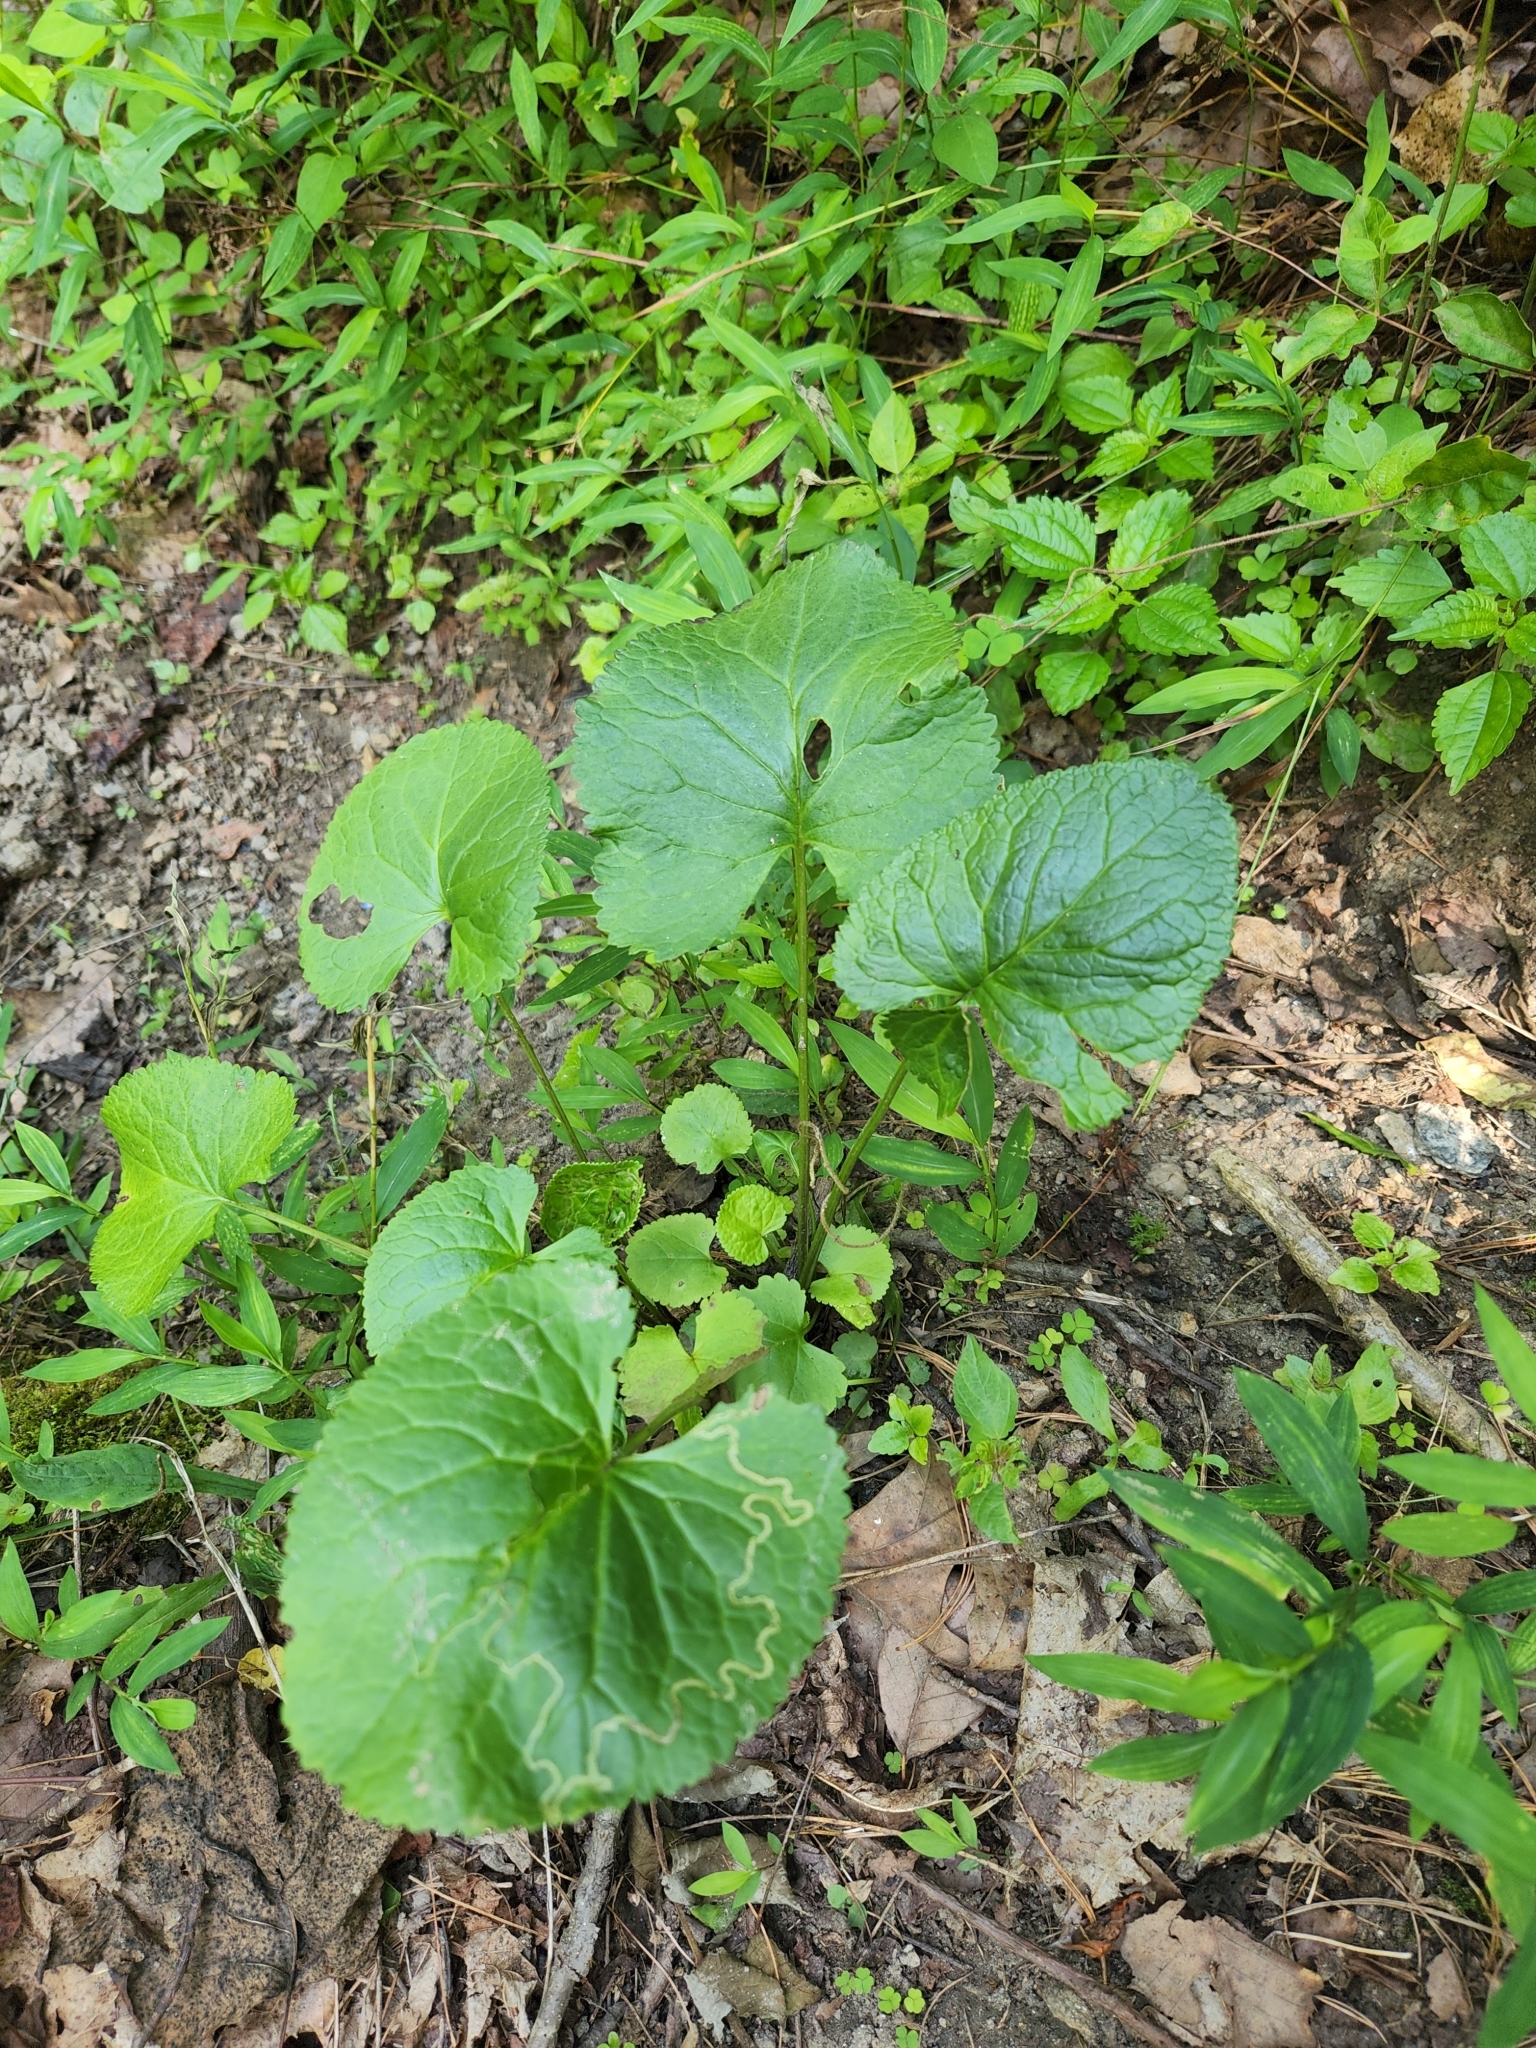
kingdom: Plantae
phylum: Tracheophyta
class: Magnoliopsida
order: Asterales
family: Asteraceae
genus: Packera
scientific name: Packera aurea
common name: Golden groundsel
